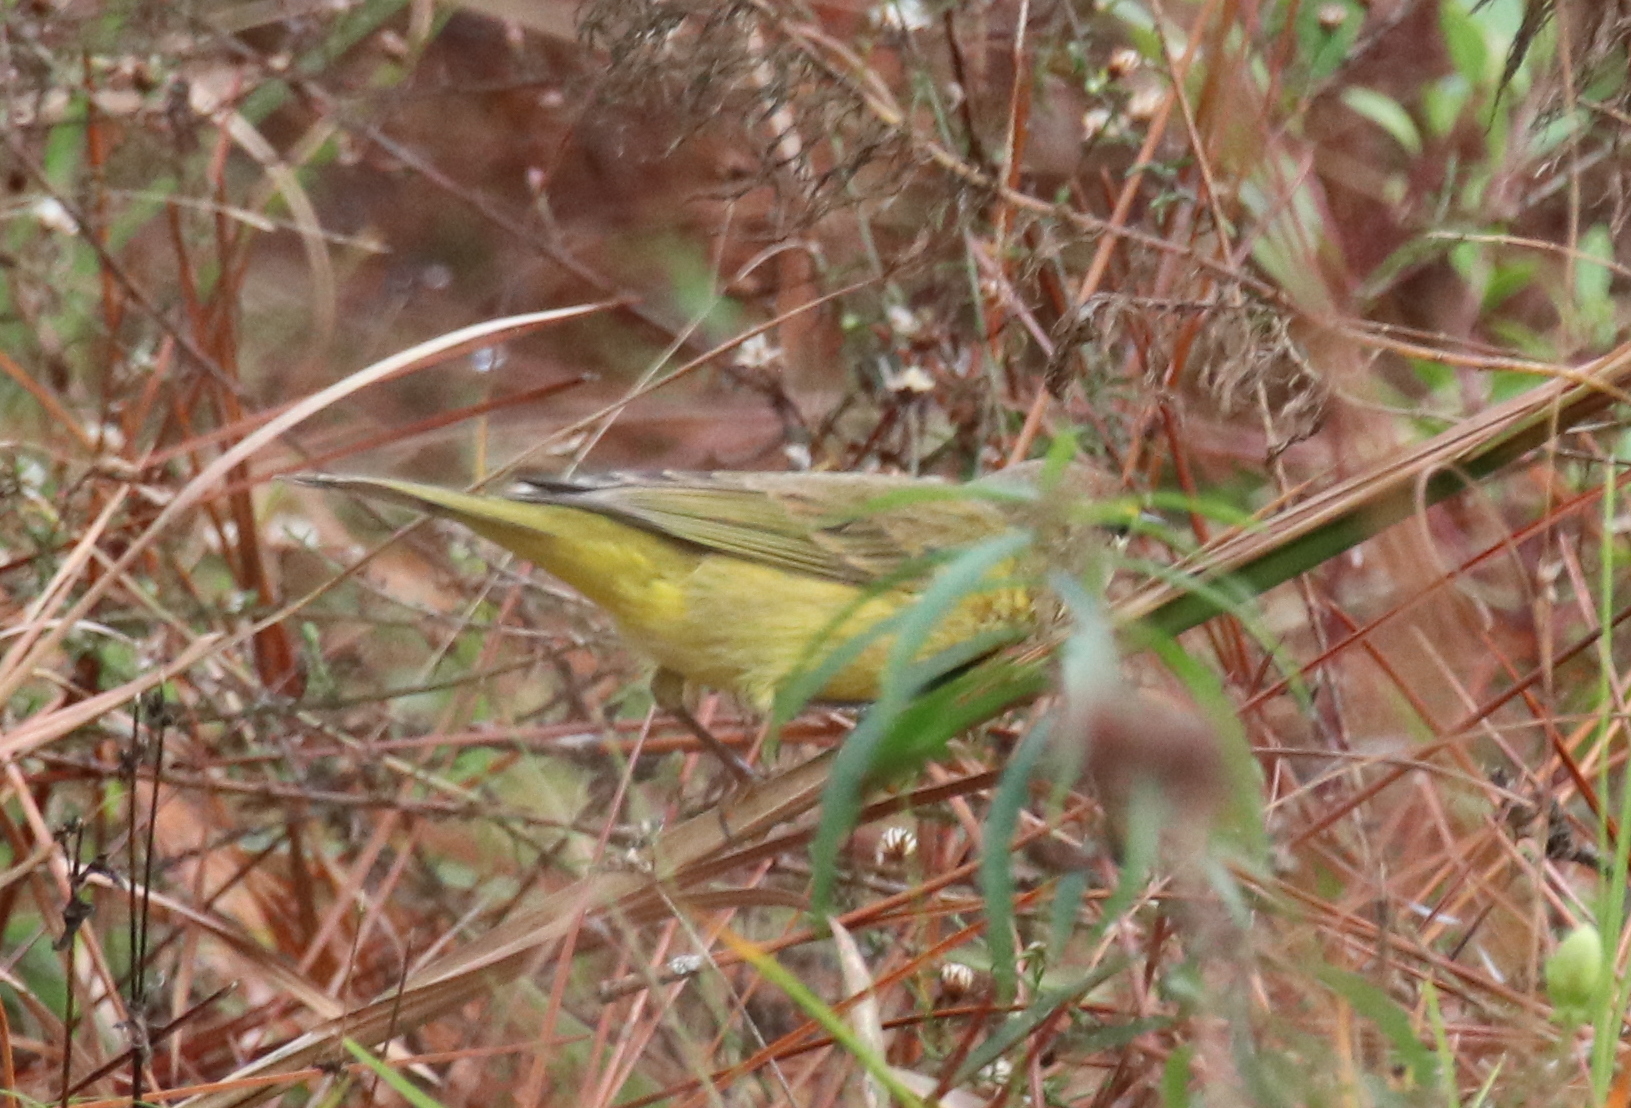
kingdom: Animalia
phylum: Chordata
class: Aves
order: Passeriformes
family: Parulidae
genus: Setophaga
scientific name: Setophaga palmarum
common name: Palm warbler
